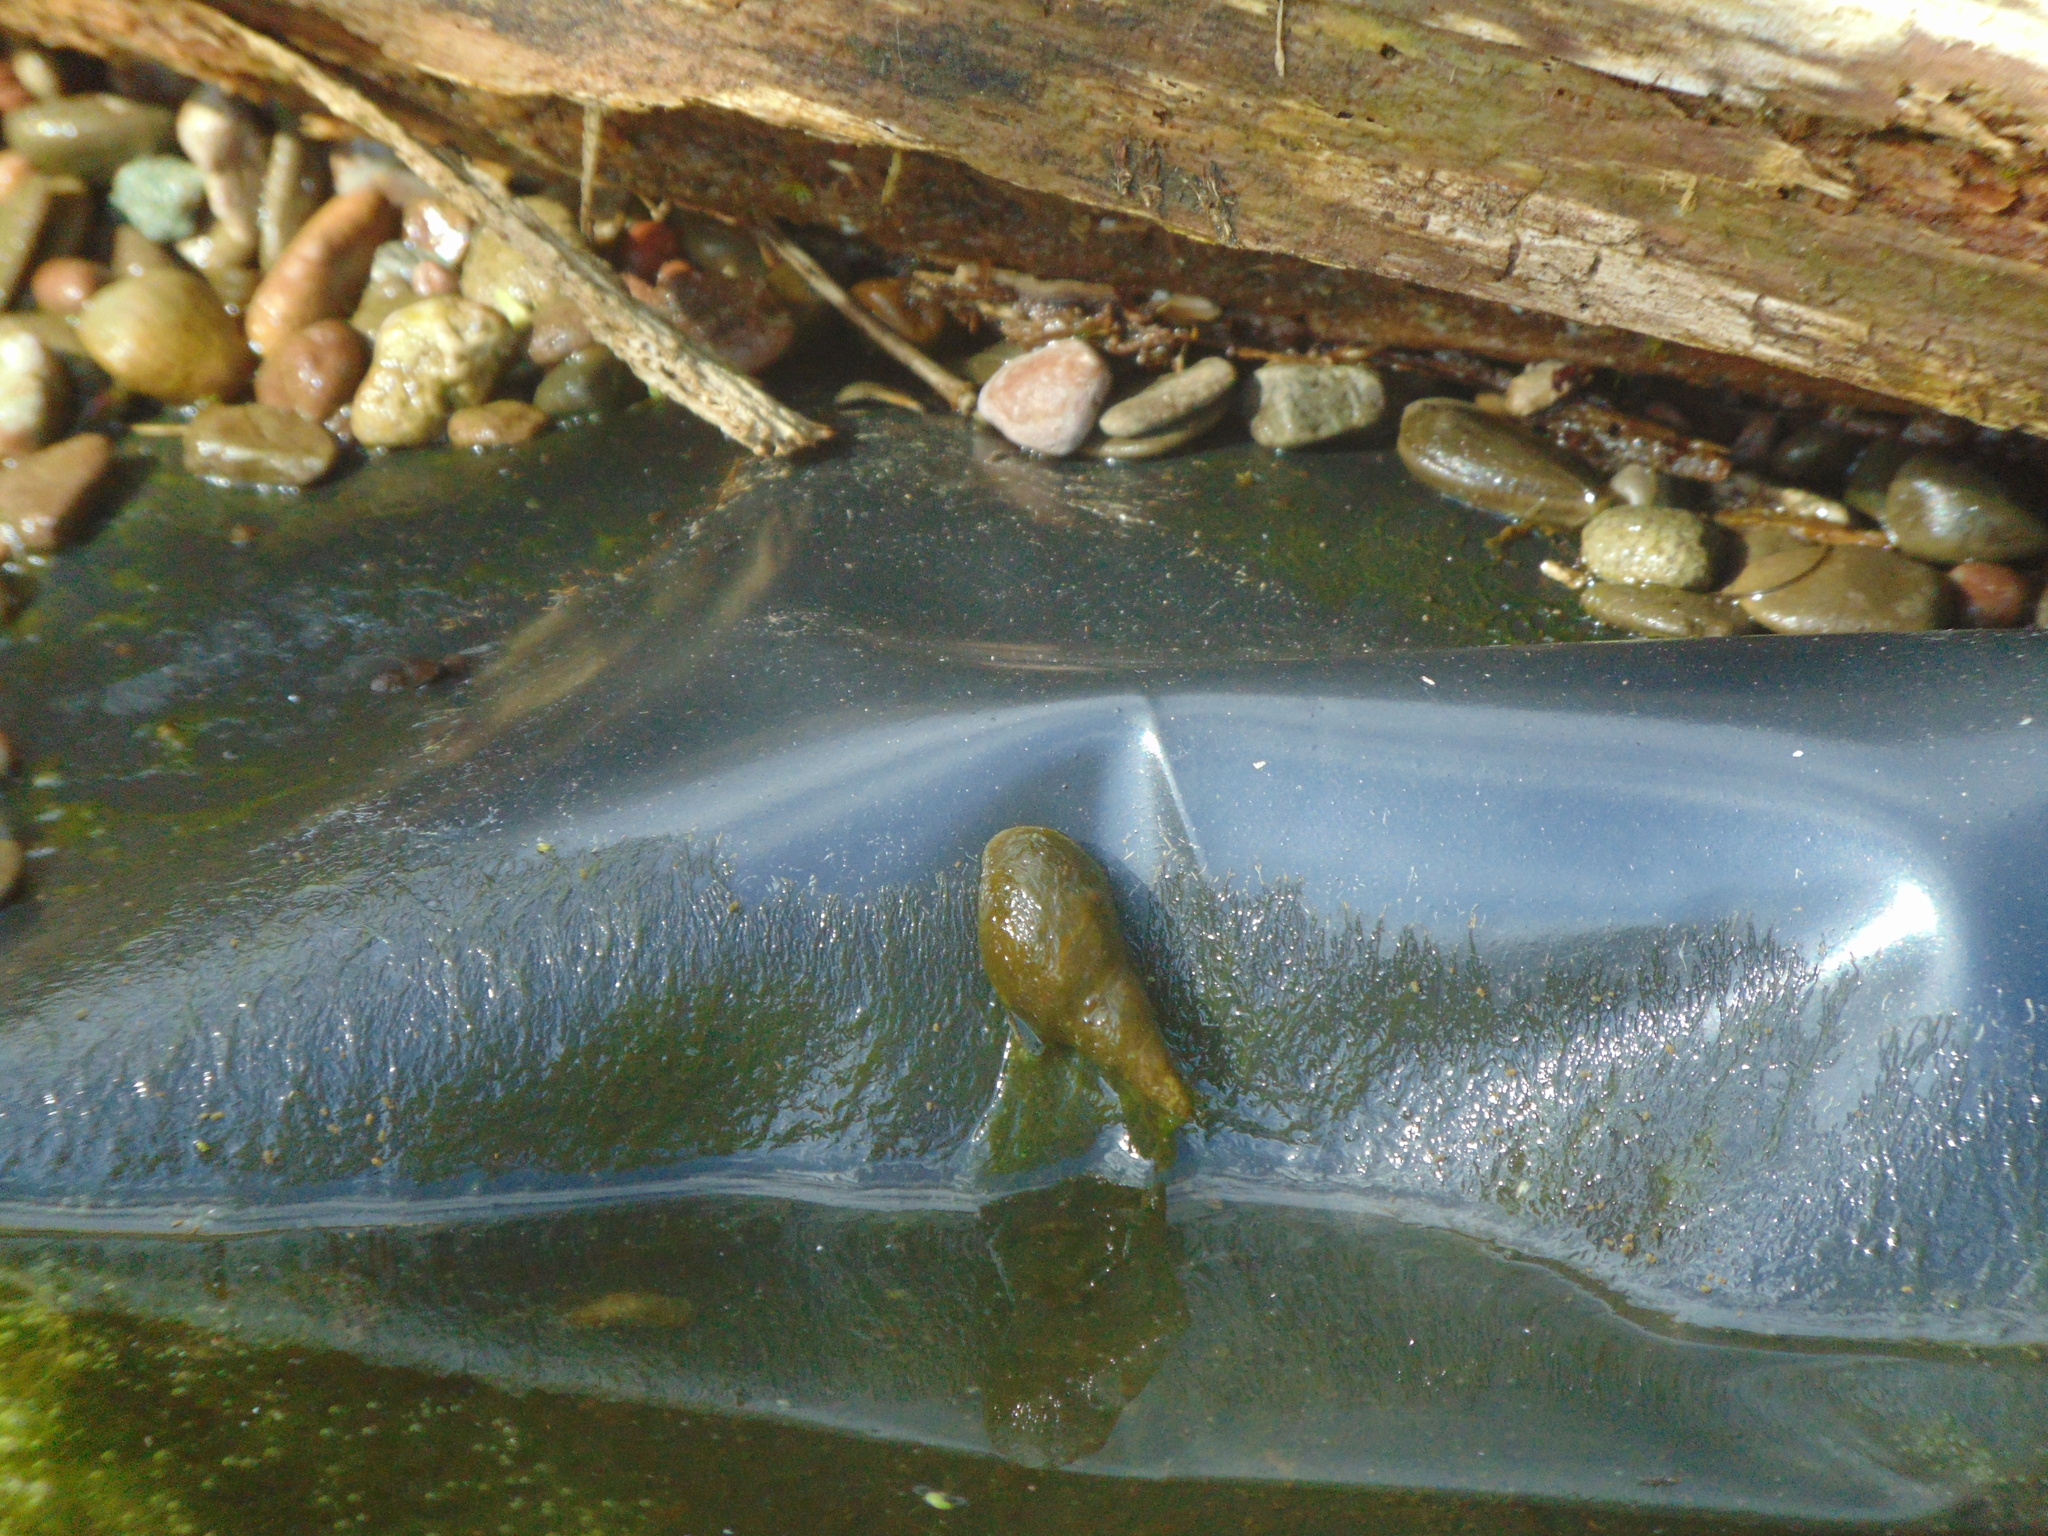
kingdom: Animalia
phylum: Mollusca
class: Gastropoda
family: Lymnaeidae
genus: Lymnaea
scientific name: Lymnaea stagnalis
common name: Great pond snail
